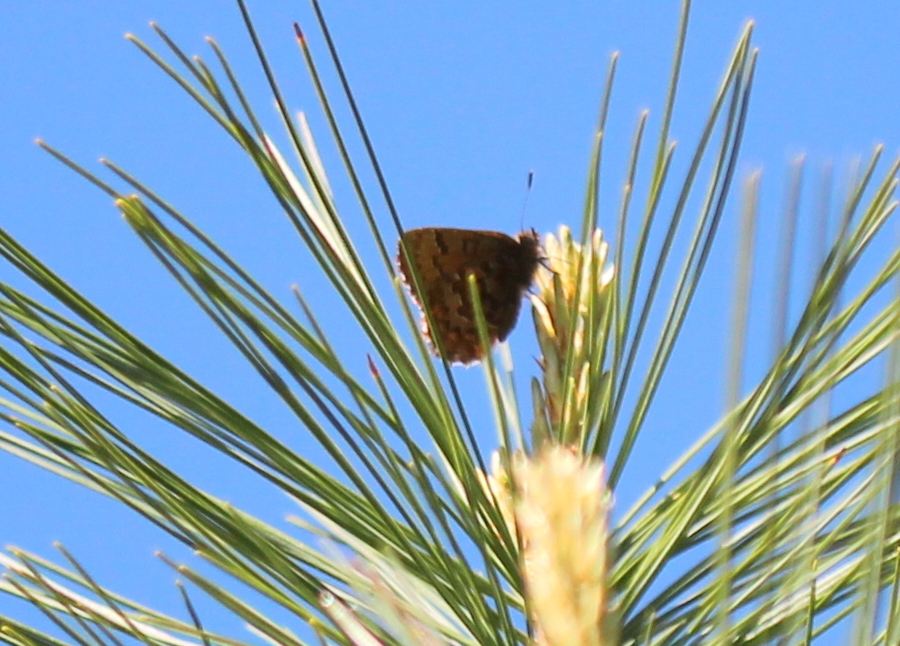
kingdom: Animalia
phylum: Arthropoda
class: Insecta
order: Lepidoptera
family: Lycaenidae
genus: Incisalia
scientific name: Incisalia niphon
